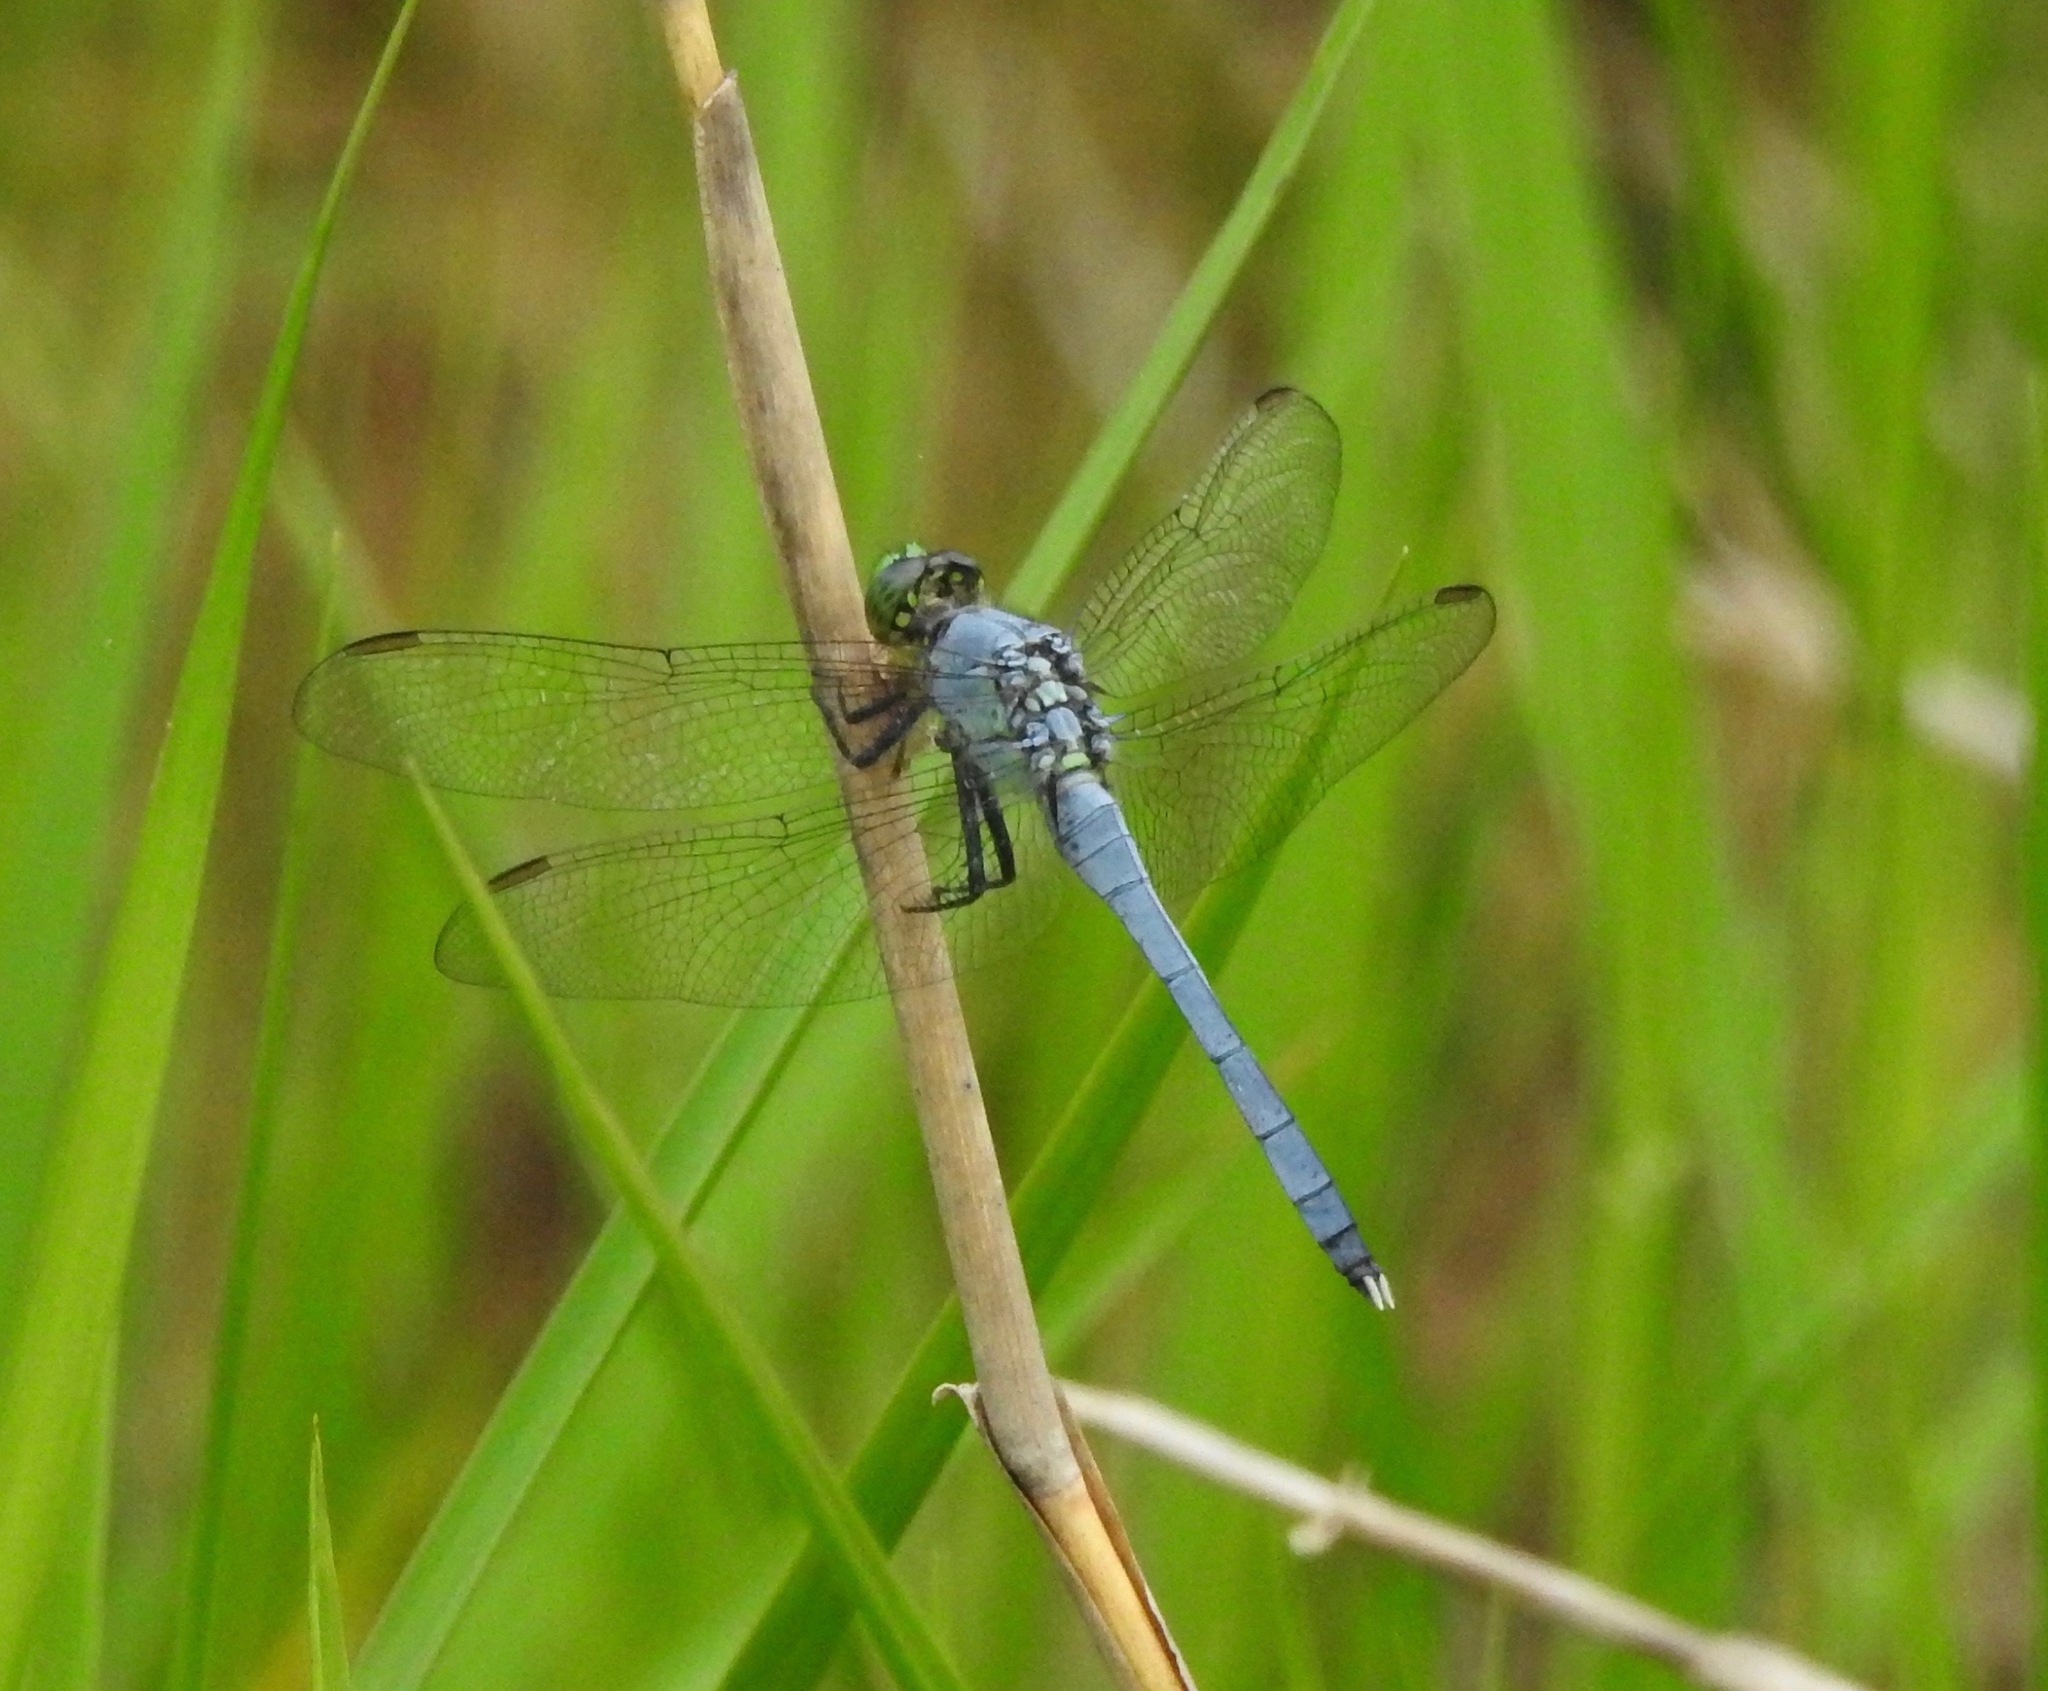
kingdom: Animalia
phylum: Arthropoda
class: Insecta
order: Odonata
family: Libellulidae
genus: Erythemis
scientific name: Erythemis simplicicollis
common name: Eastern pondhawk
